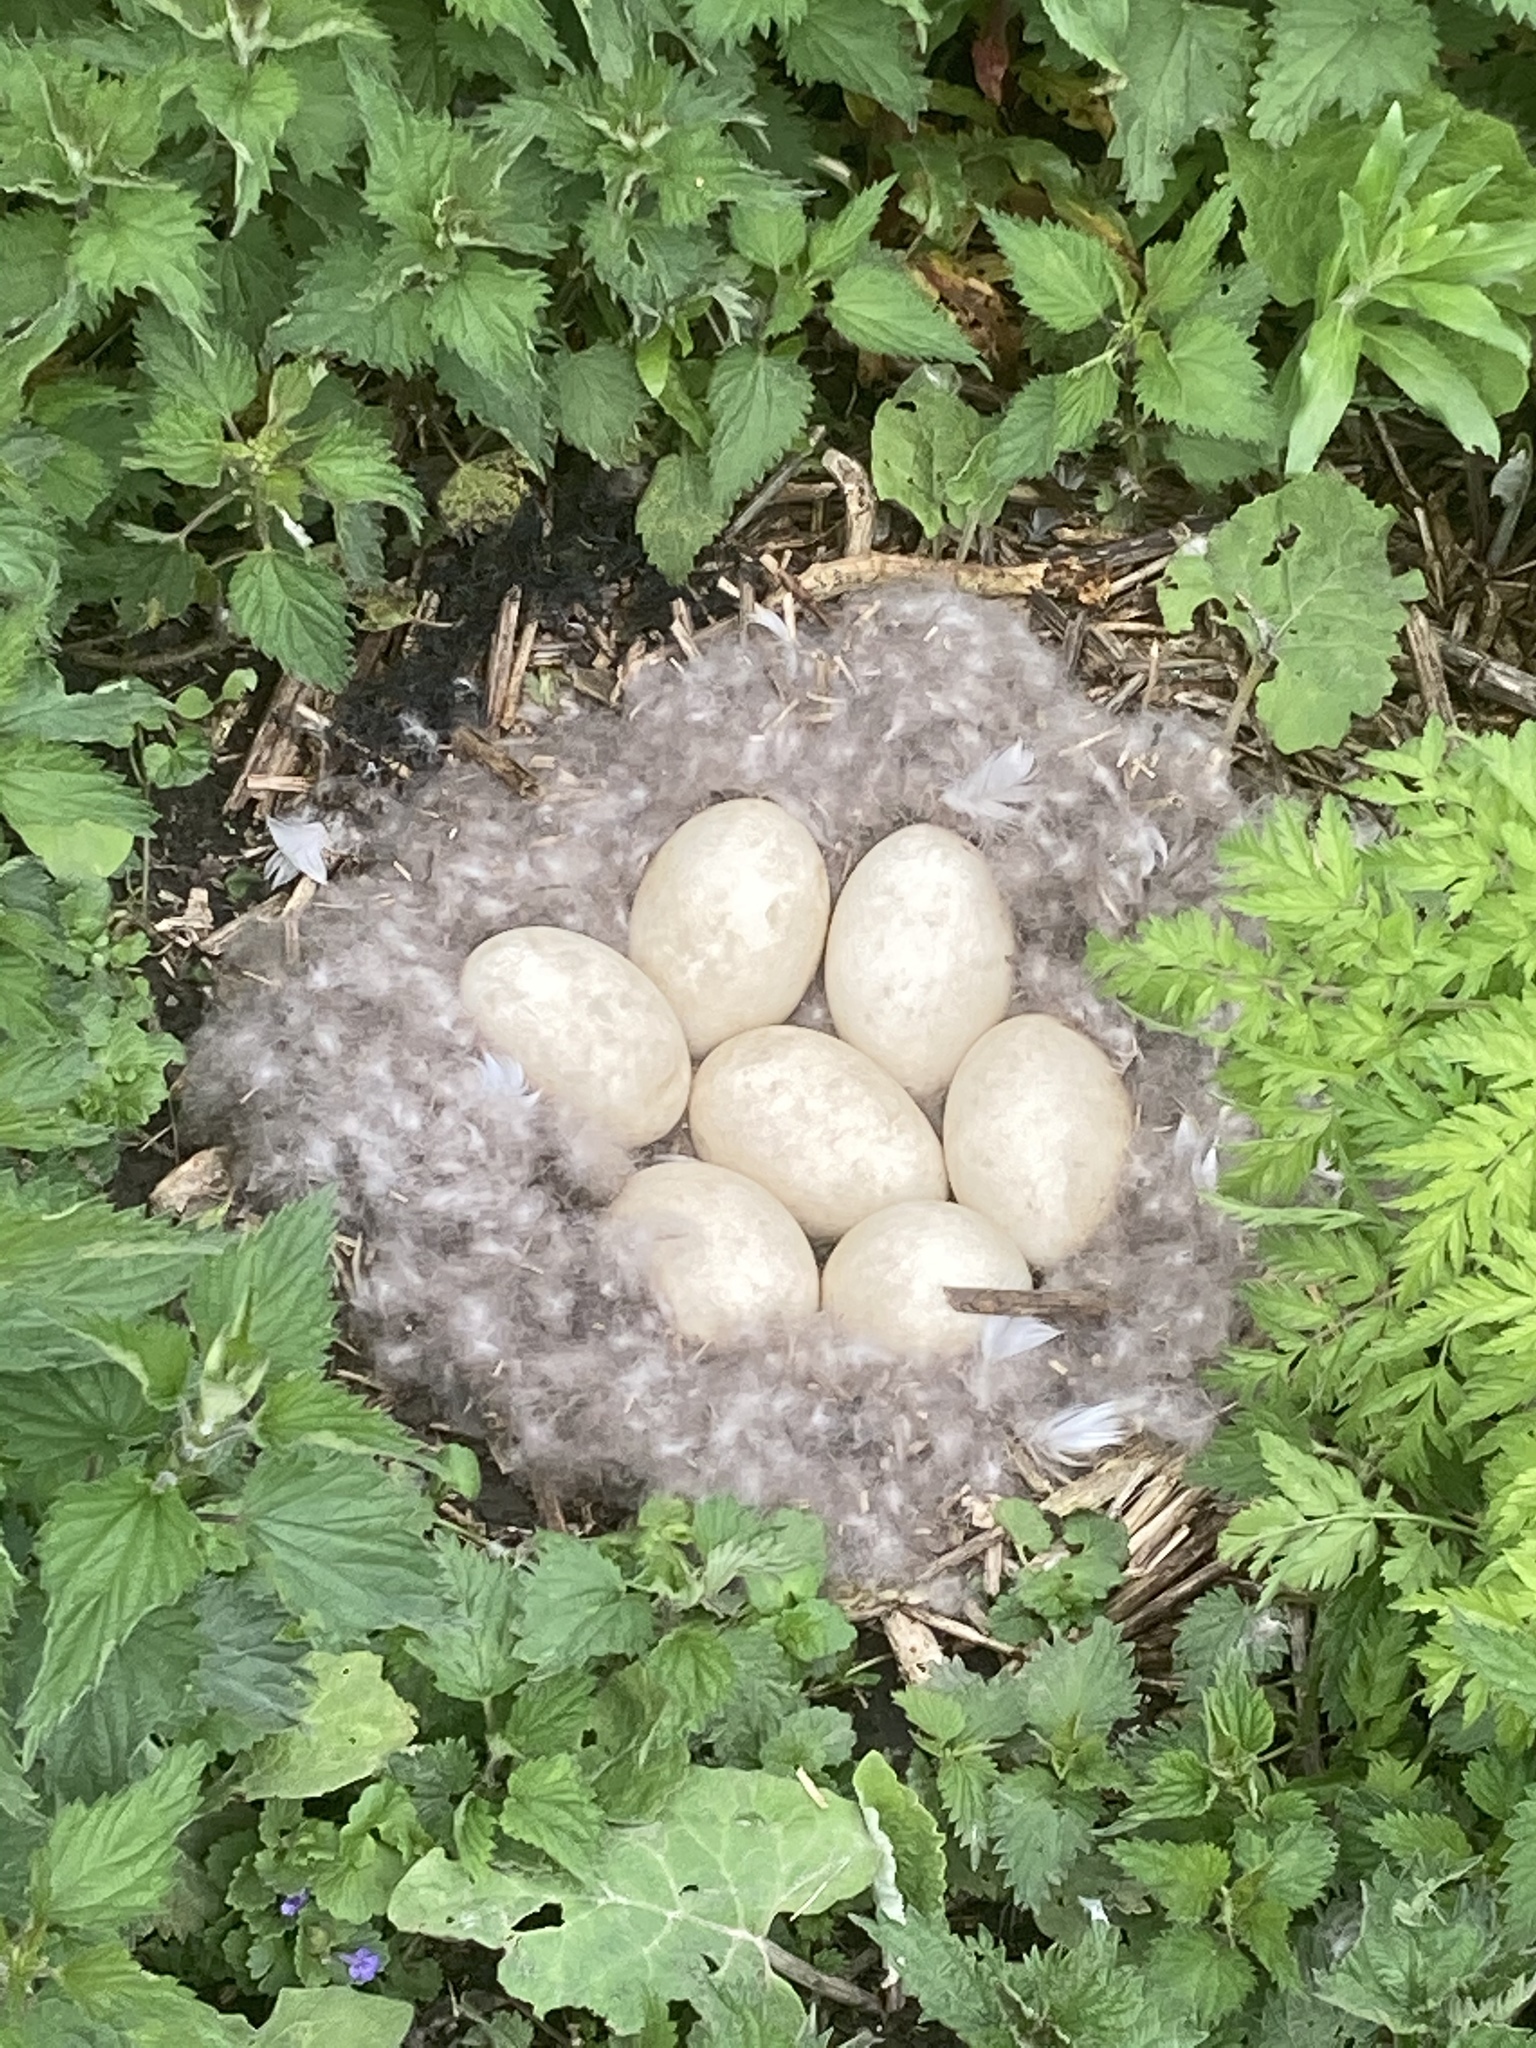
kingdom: Animalia
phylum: Chordata
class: Aves
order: Anseriformes
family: Anatidae
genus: Branta
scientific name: Branta canadensis
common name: Canada goose
